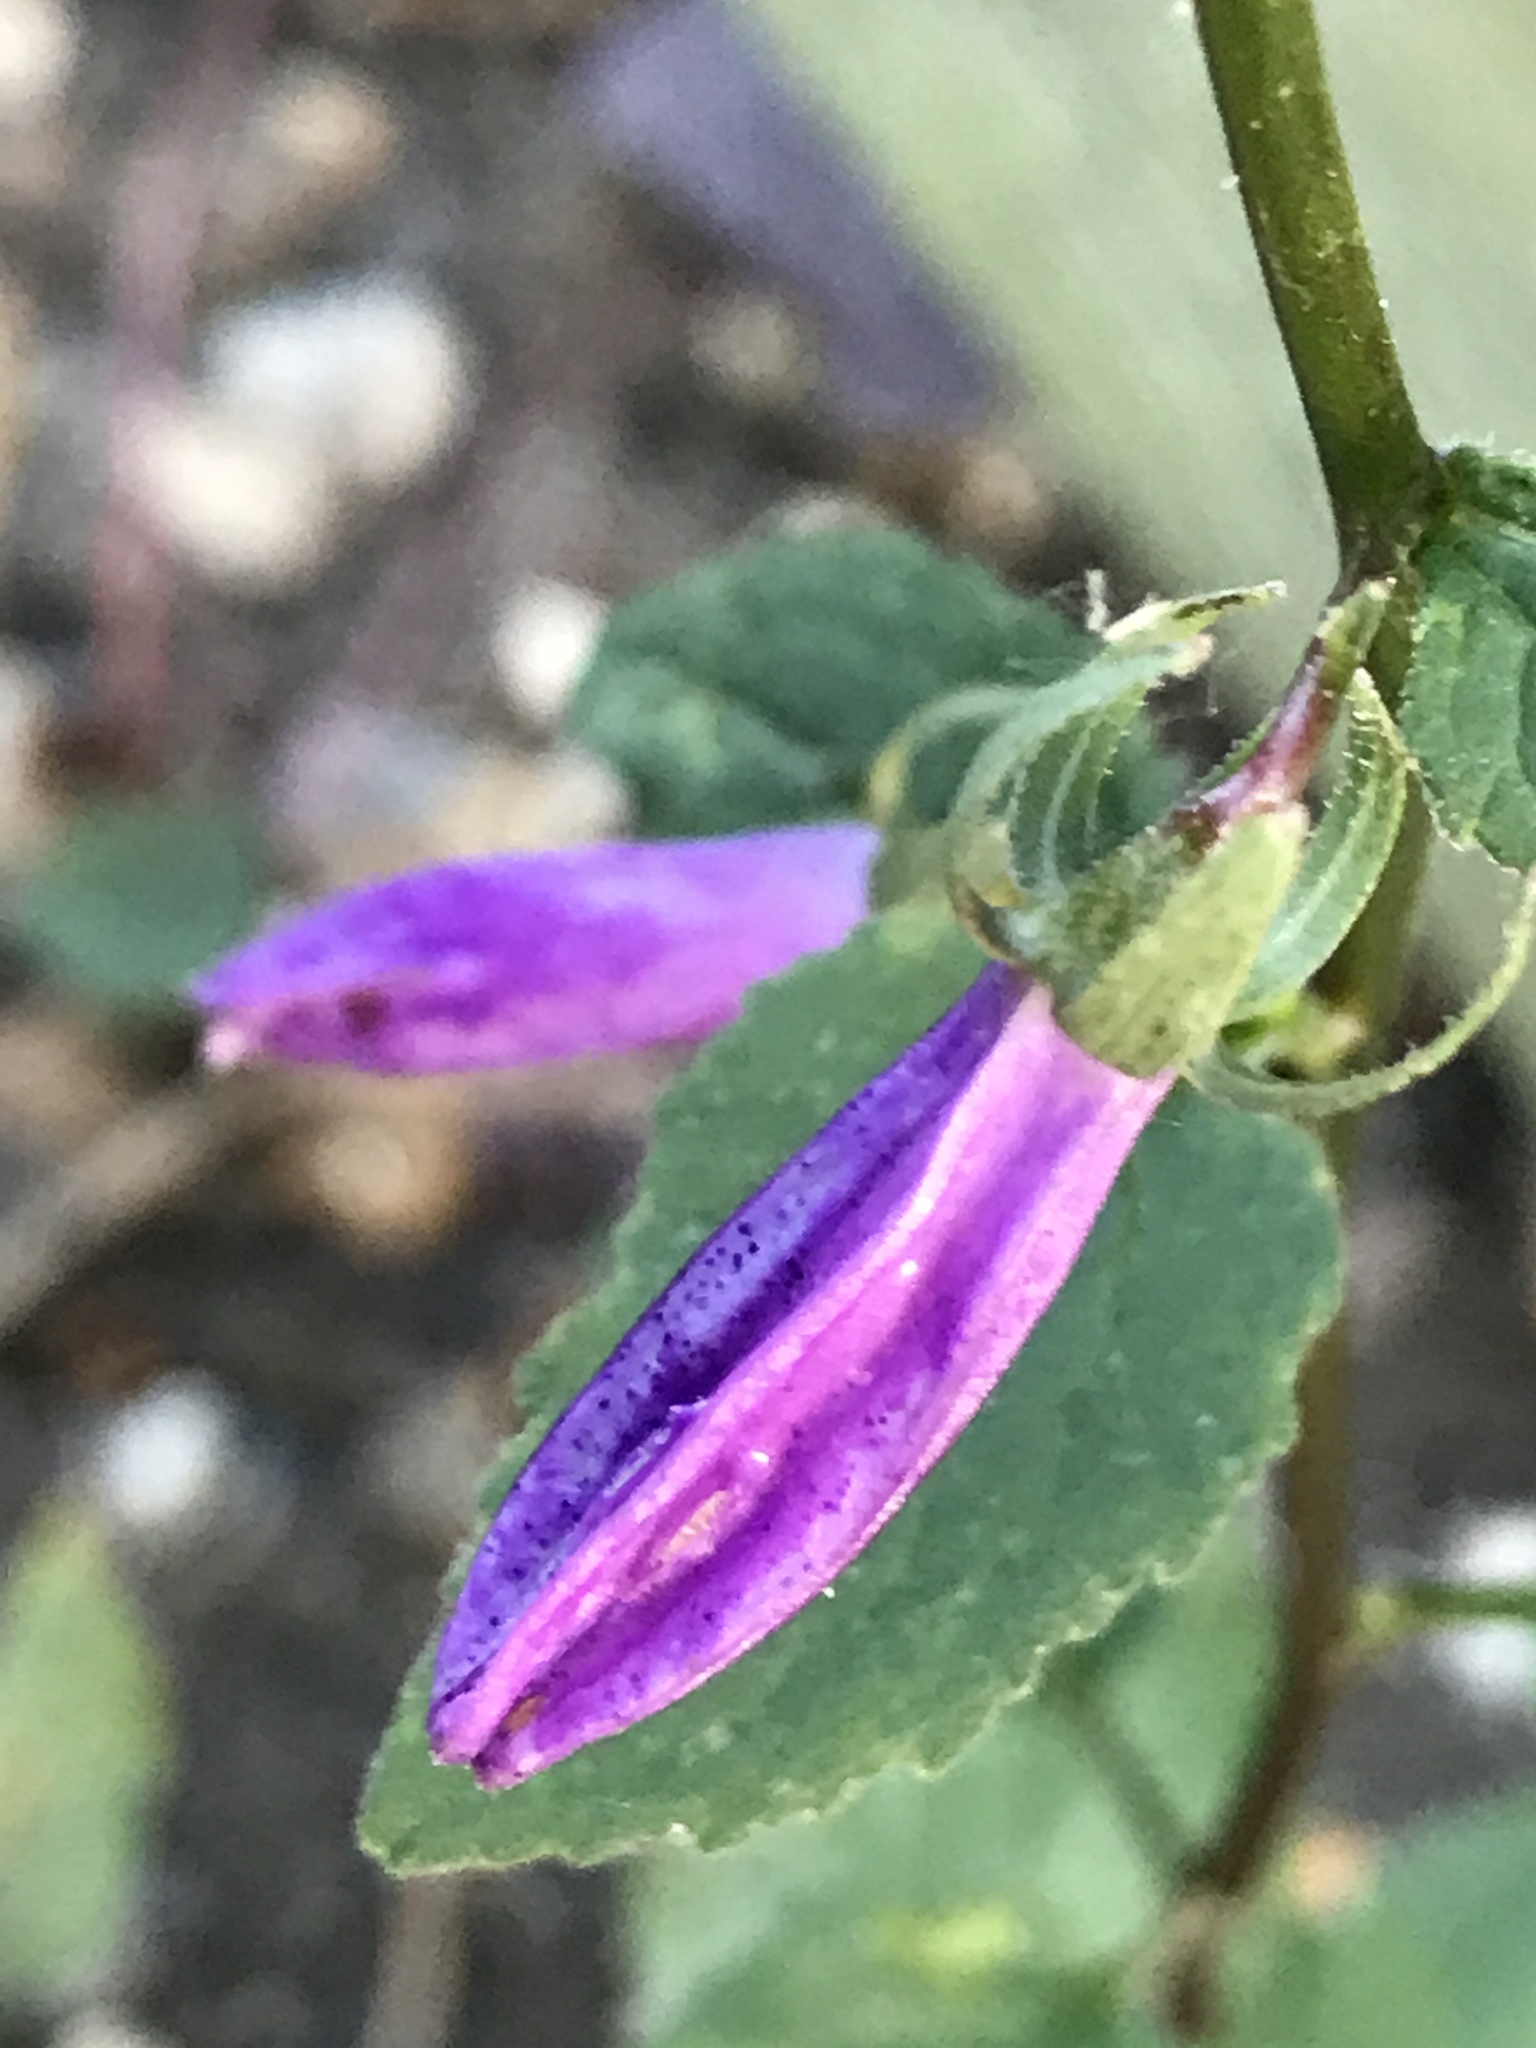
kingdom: Plantae
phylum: Tracheophyta
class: Magnoliopsida
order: Asterales
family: Campanulaceae
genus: Campanula
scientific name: Campanula rapunculoides
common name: Creeping bellflower
